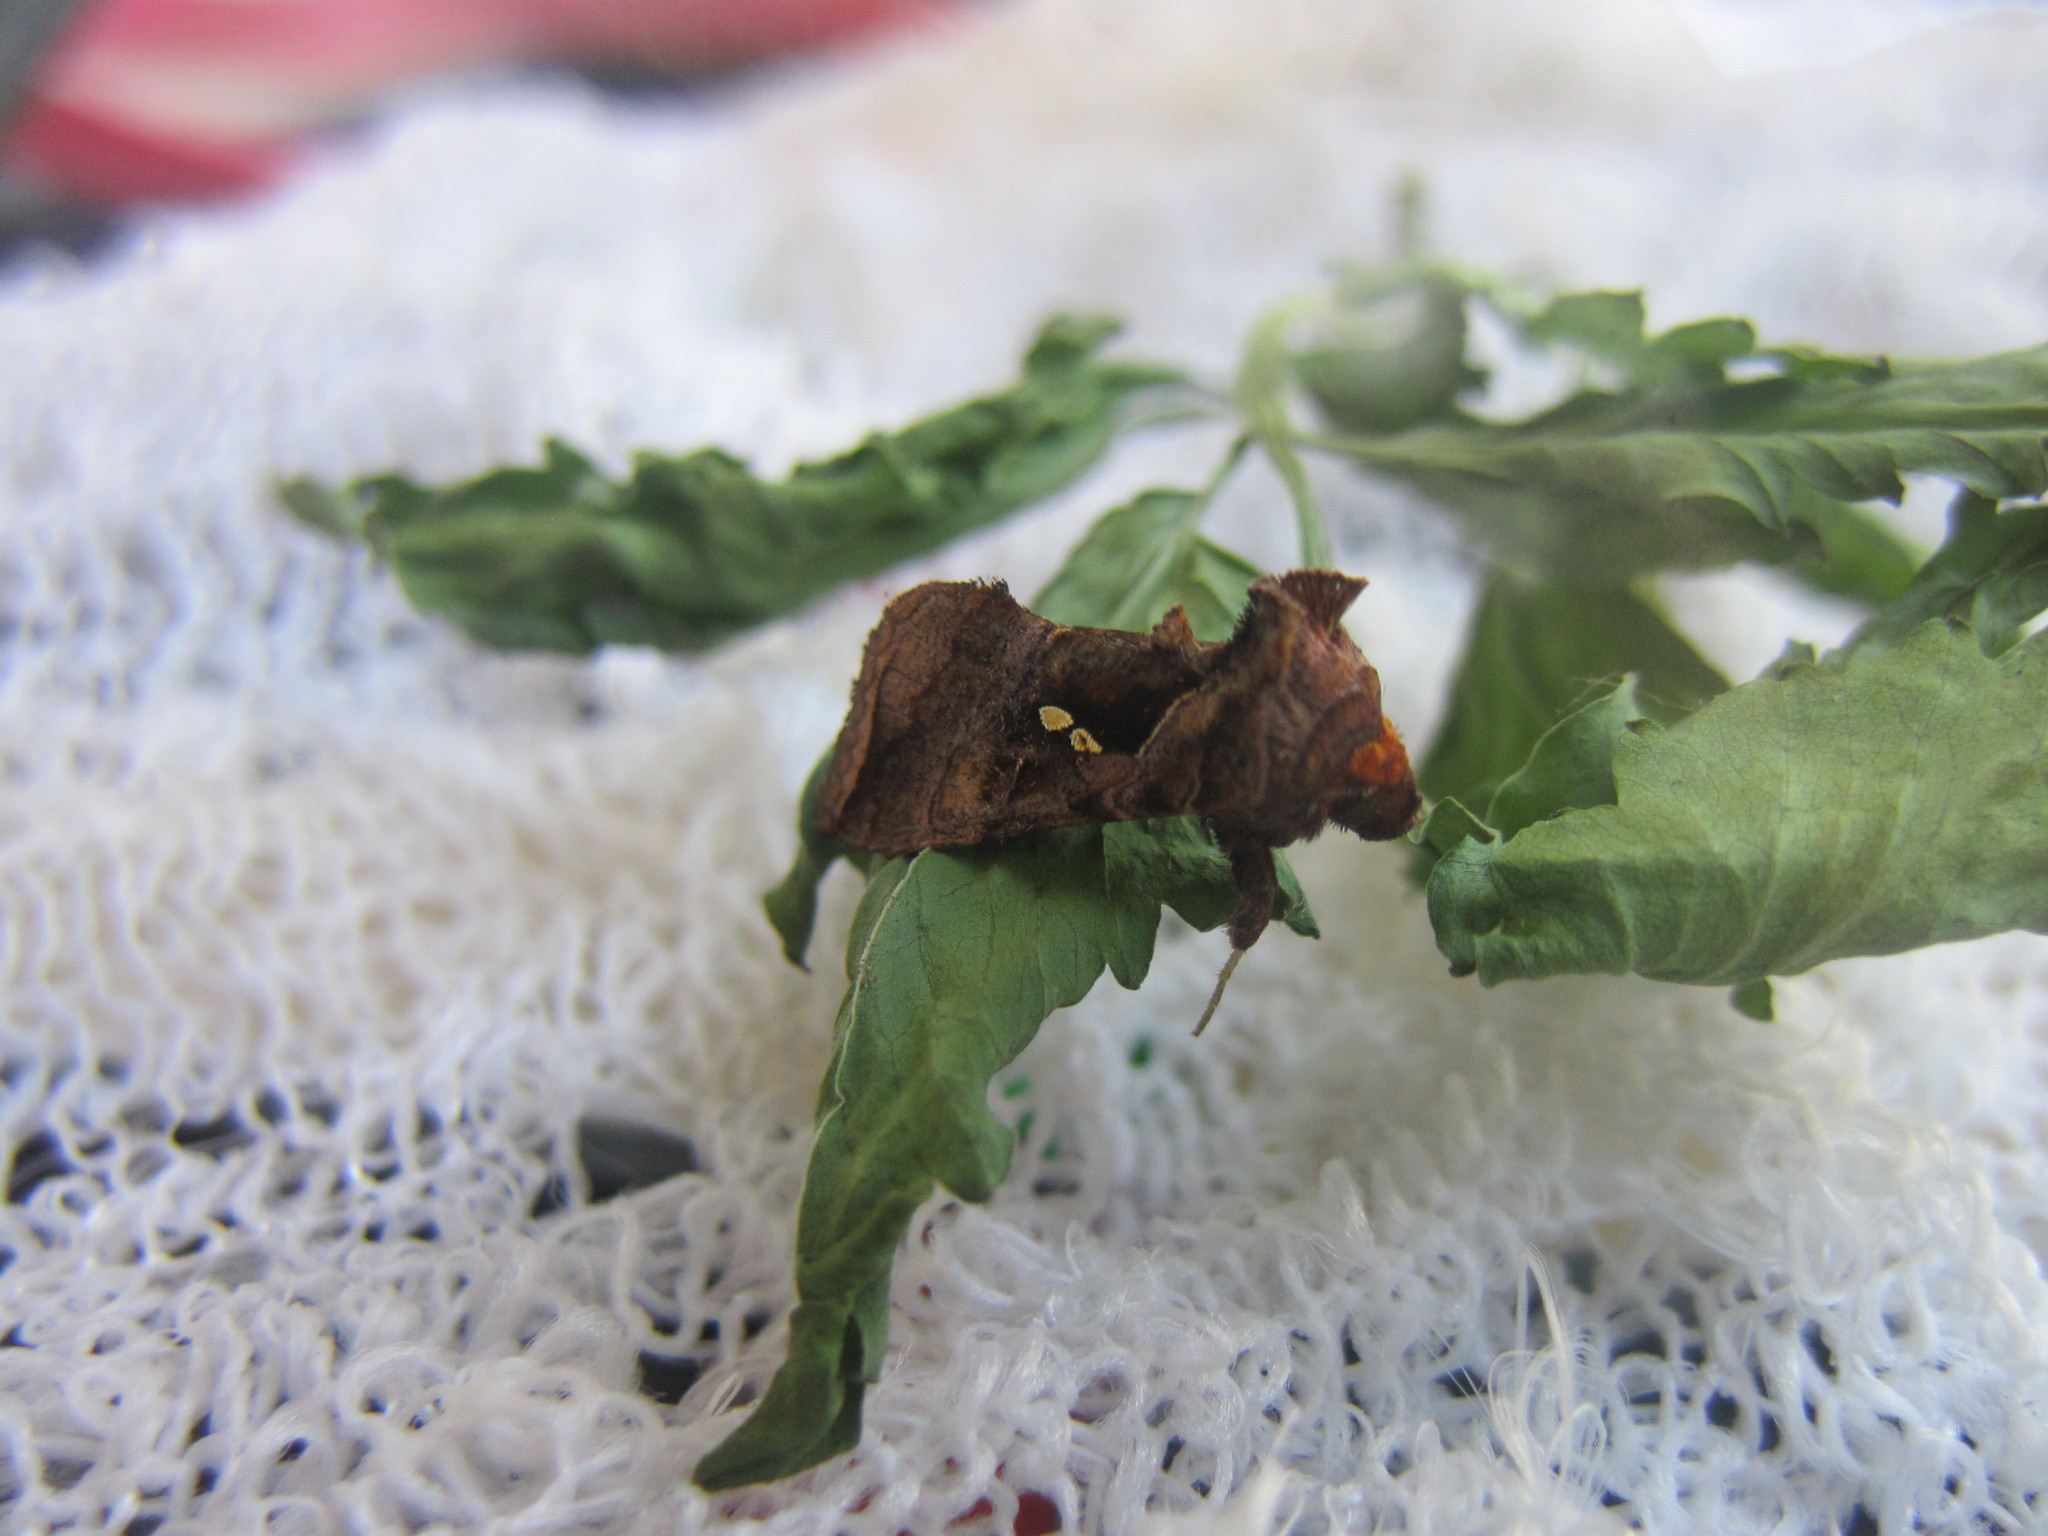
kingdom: Animalia
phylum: Arthropoda
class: Insecta
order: Lepidoptera
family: Noctuidae
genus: Enigmogramma
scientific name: Enigmogramma basigera
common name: Pink-washed looper moth
